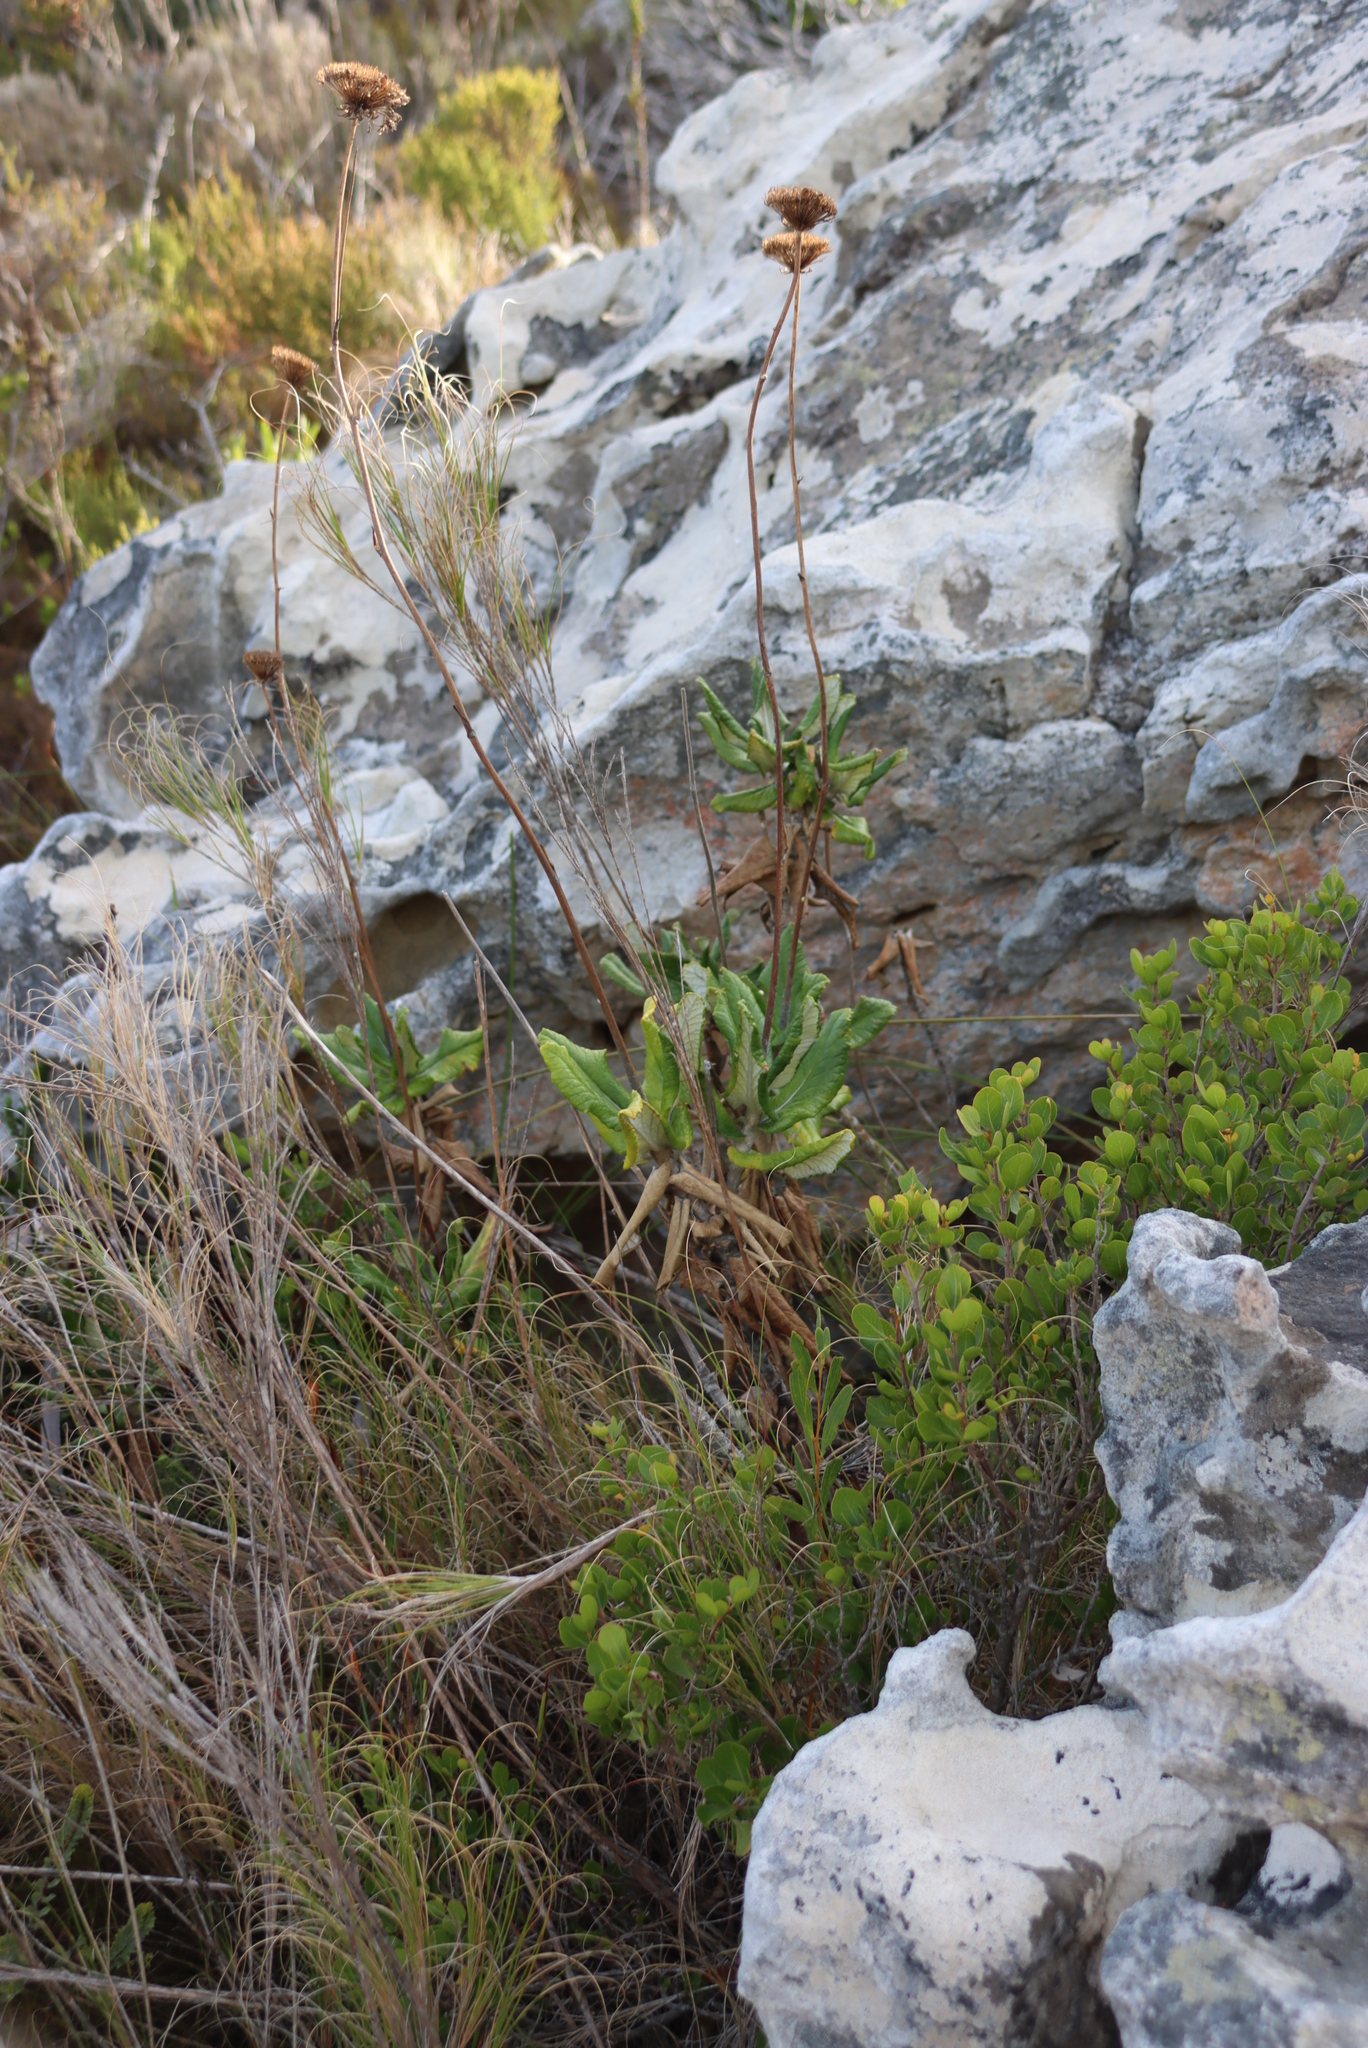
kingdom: Plantae
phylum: Tracheophyta
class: Magnoliopsida
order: Apiales
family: Apiaceae
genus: Hermas
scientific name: Hermas villosa
